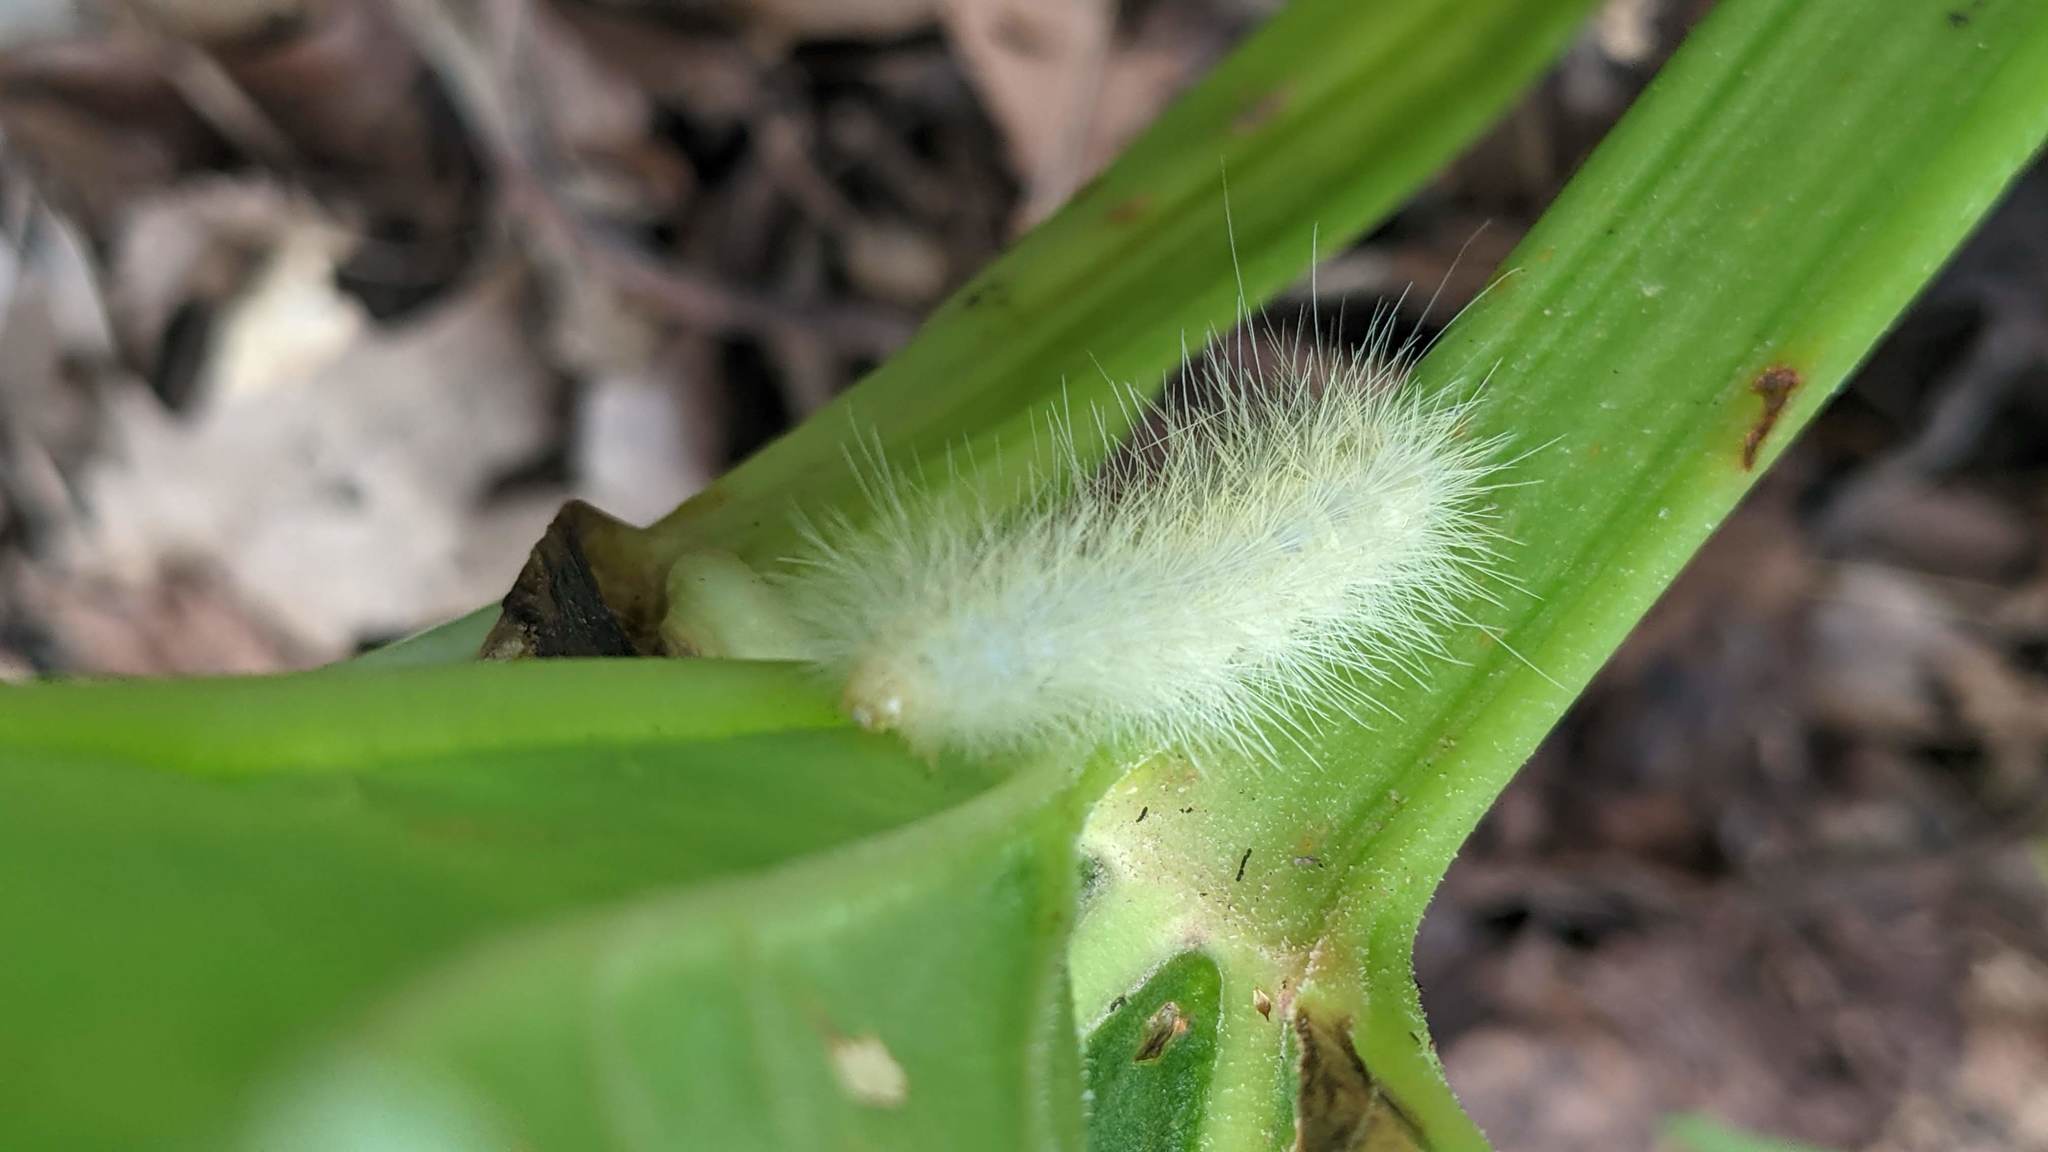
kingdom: Animalia
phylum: Arthropoda
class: Insecta
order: Lepidoptera
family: Erebidae
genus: Spilosoma
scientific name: Spilosoma virginica
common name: Virginia tiger moth
